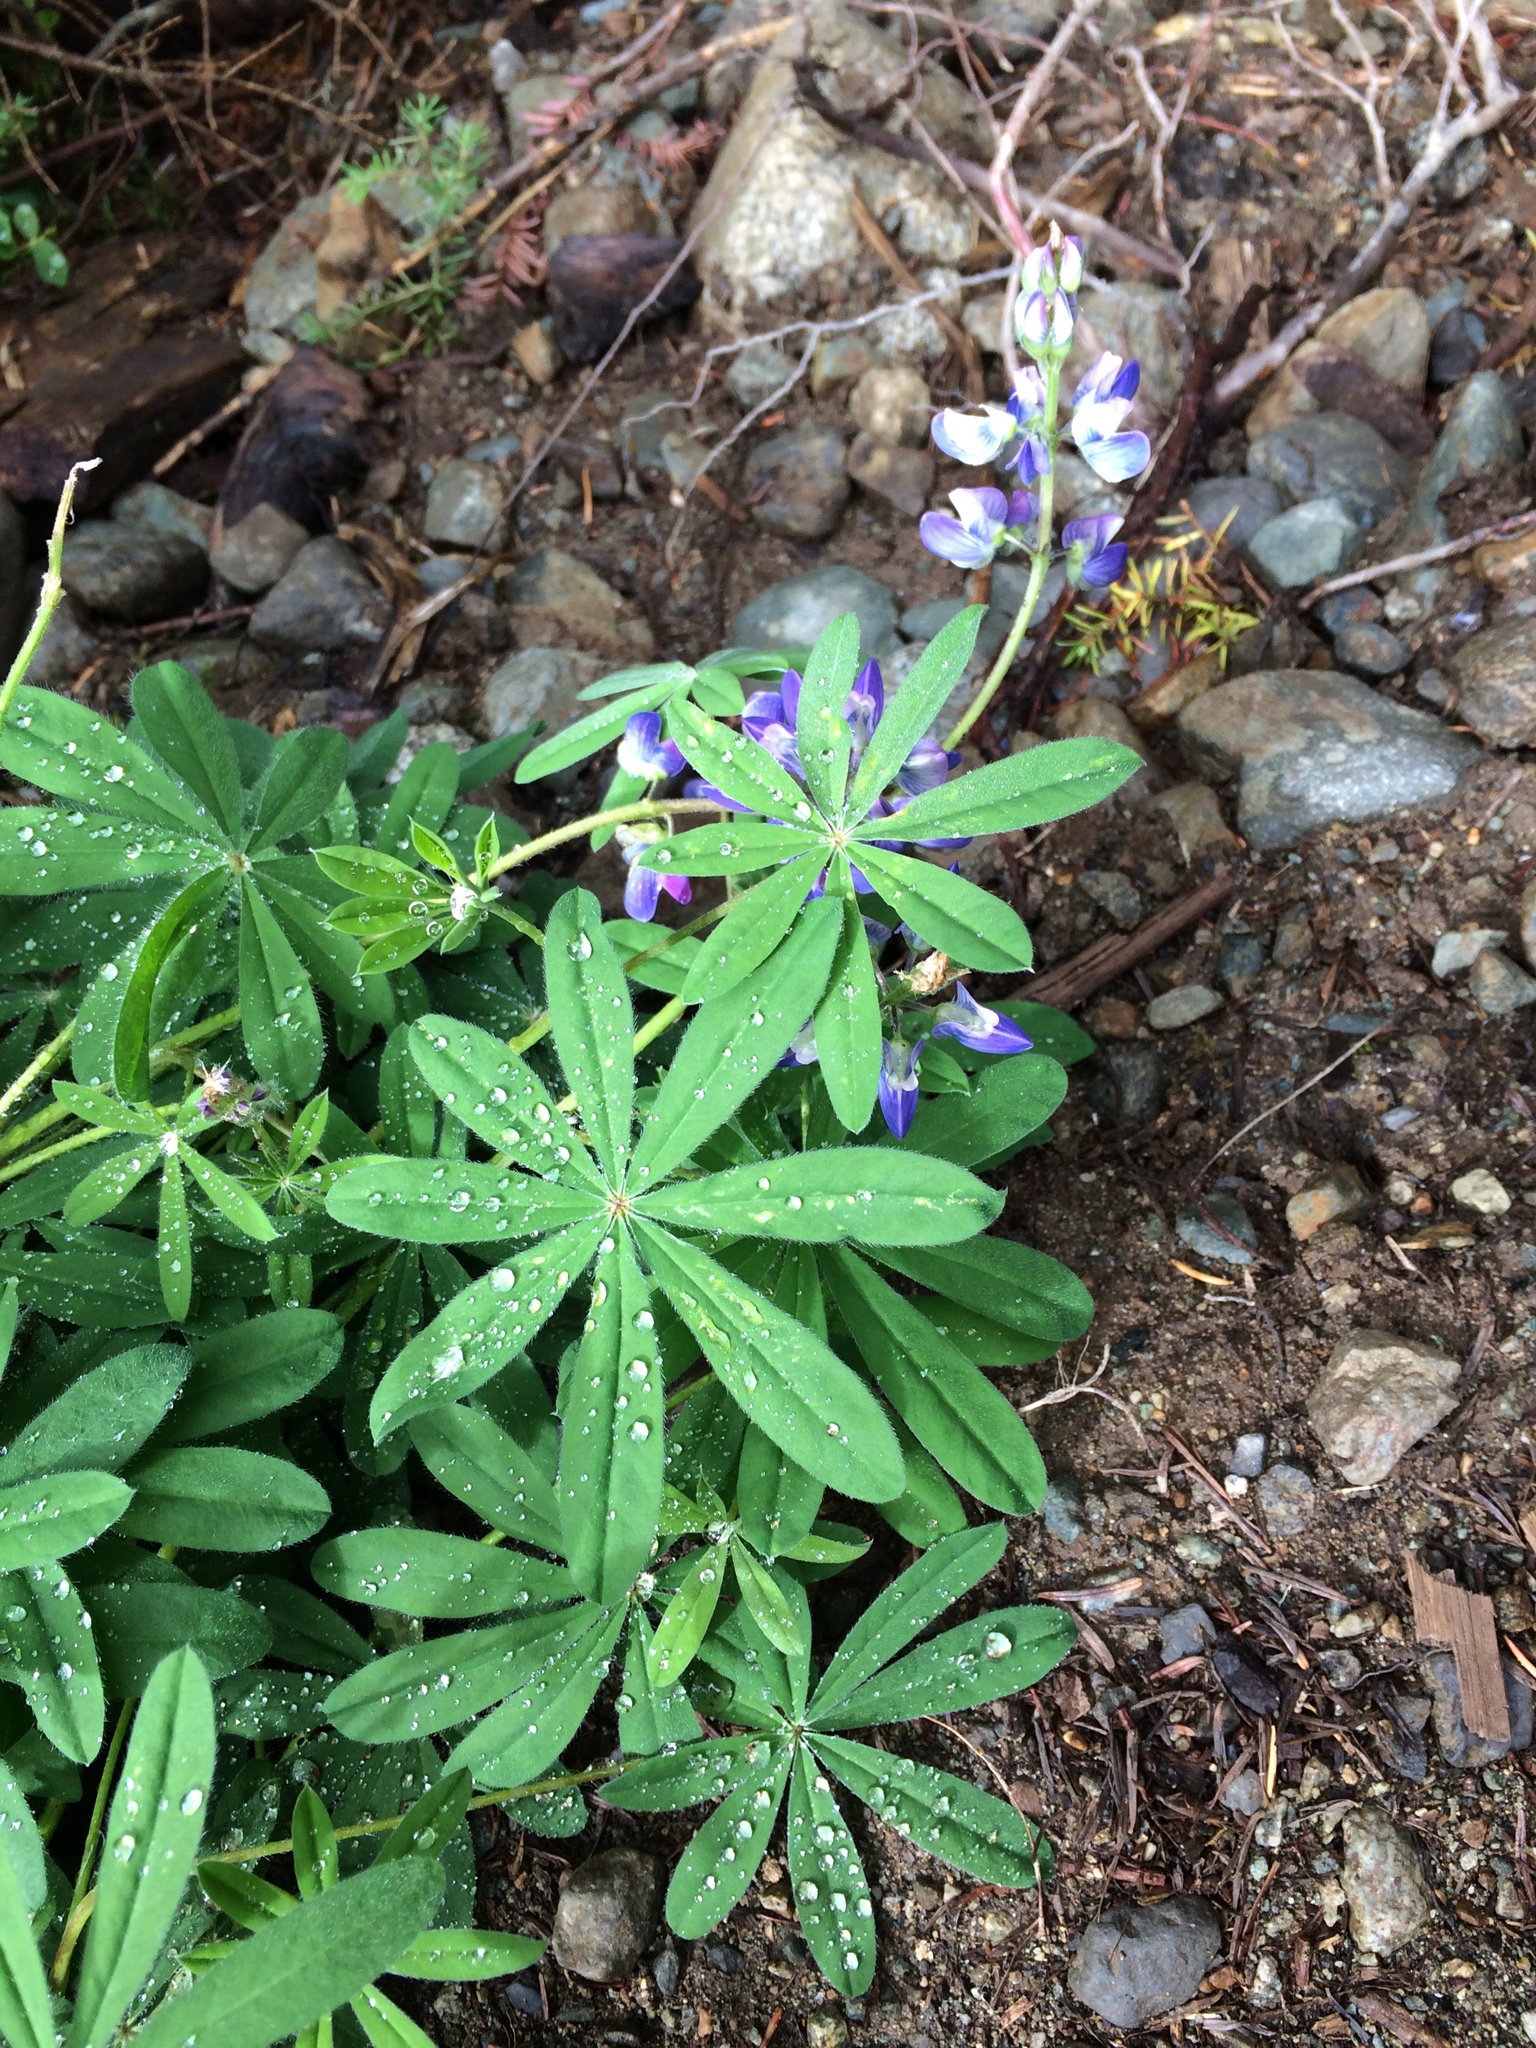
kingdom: Plantae
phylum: Tracheophyta
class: Magnoliopsida
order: Fabales
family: Fabaceae
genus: Lupinus
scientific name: Lupinus arcticus
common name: Arctic lupine
